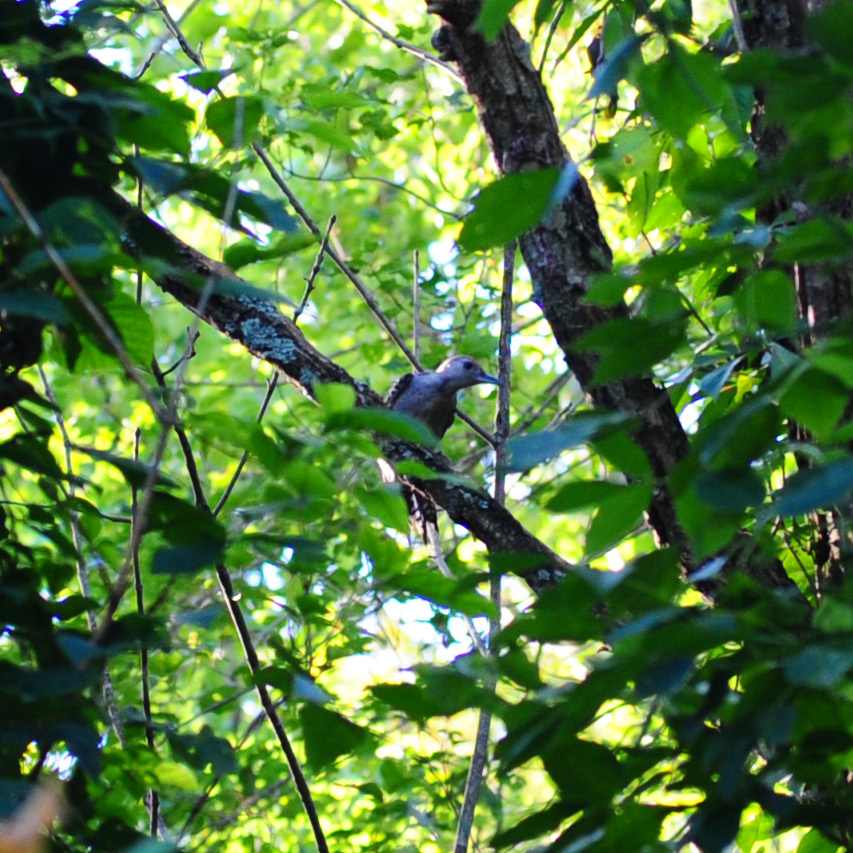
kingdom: Animalia
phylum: Chordata
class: Aves
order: Piciformes
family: Picidae
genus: Melanerpes
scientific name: Melanerpes carolinus
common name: Red-bellied woodpecker
